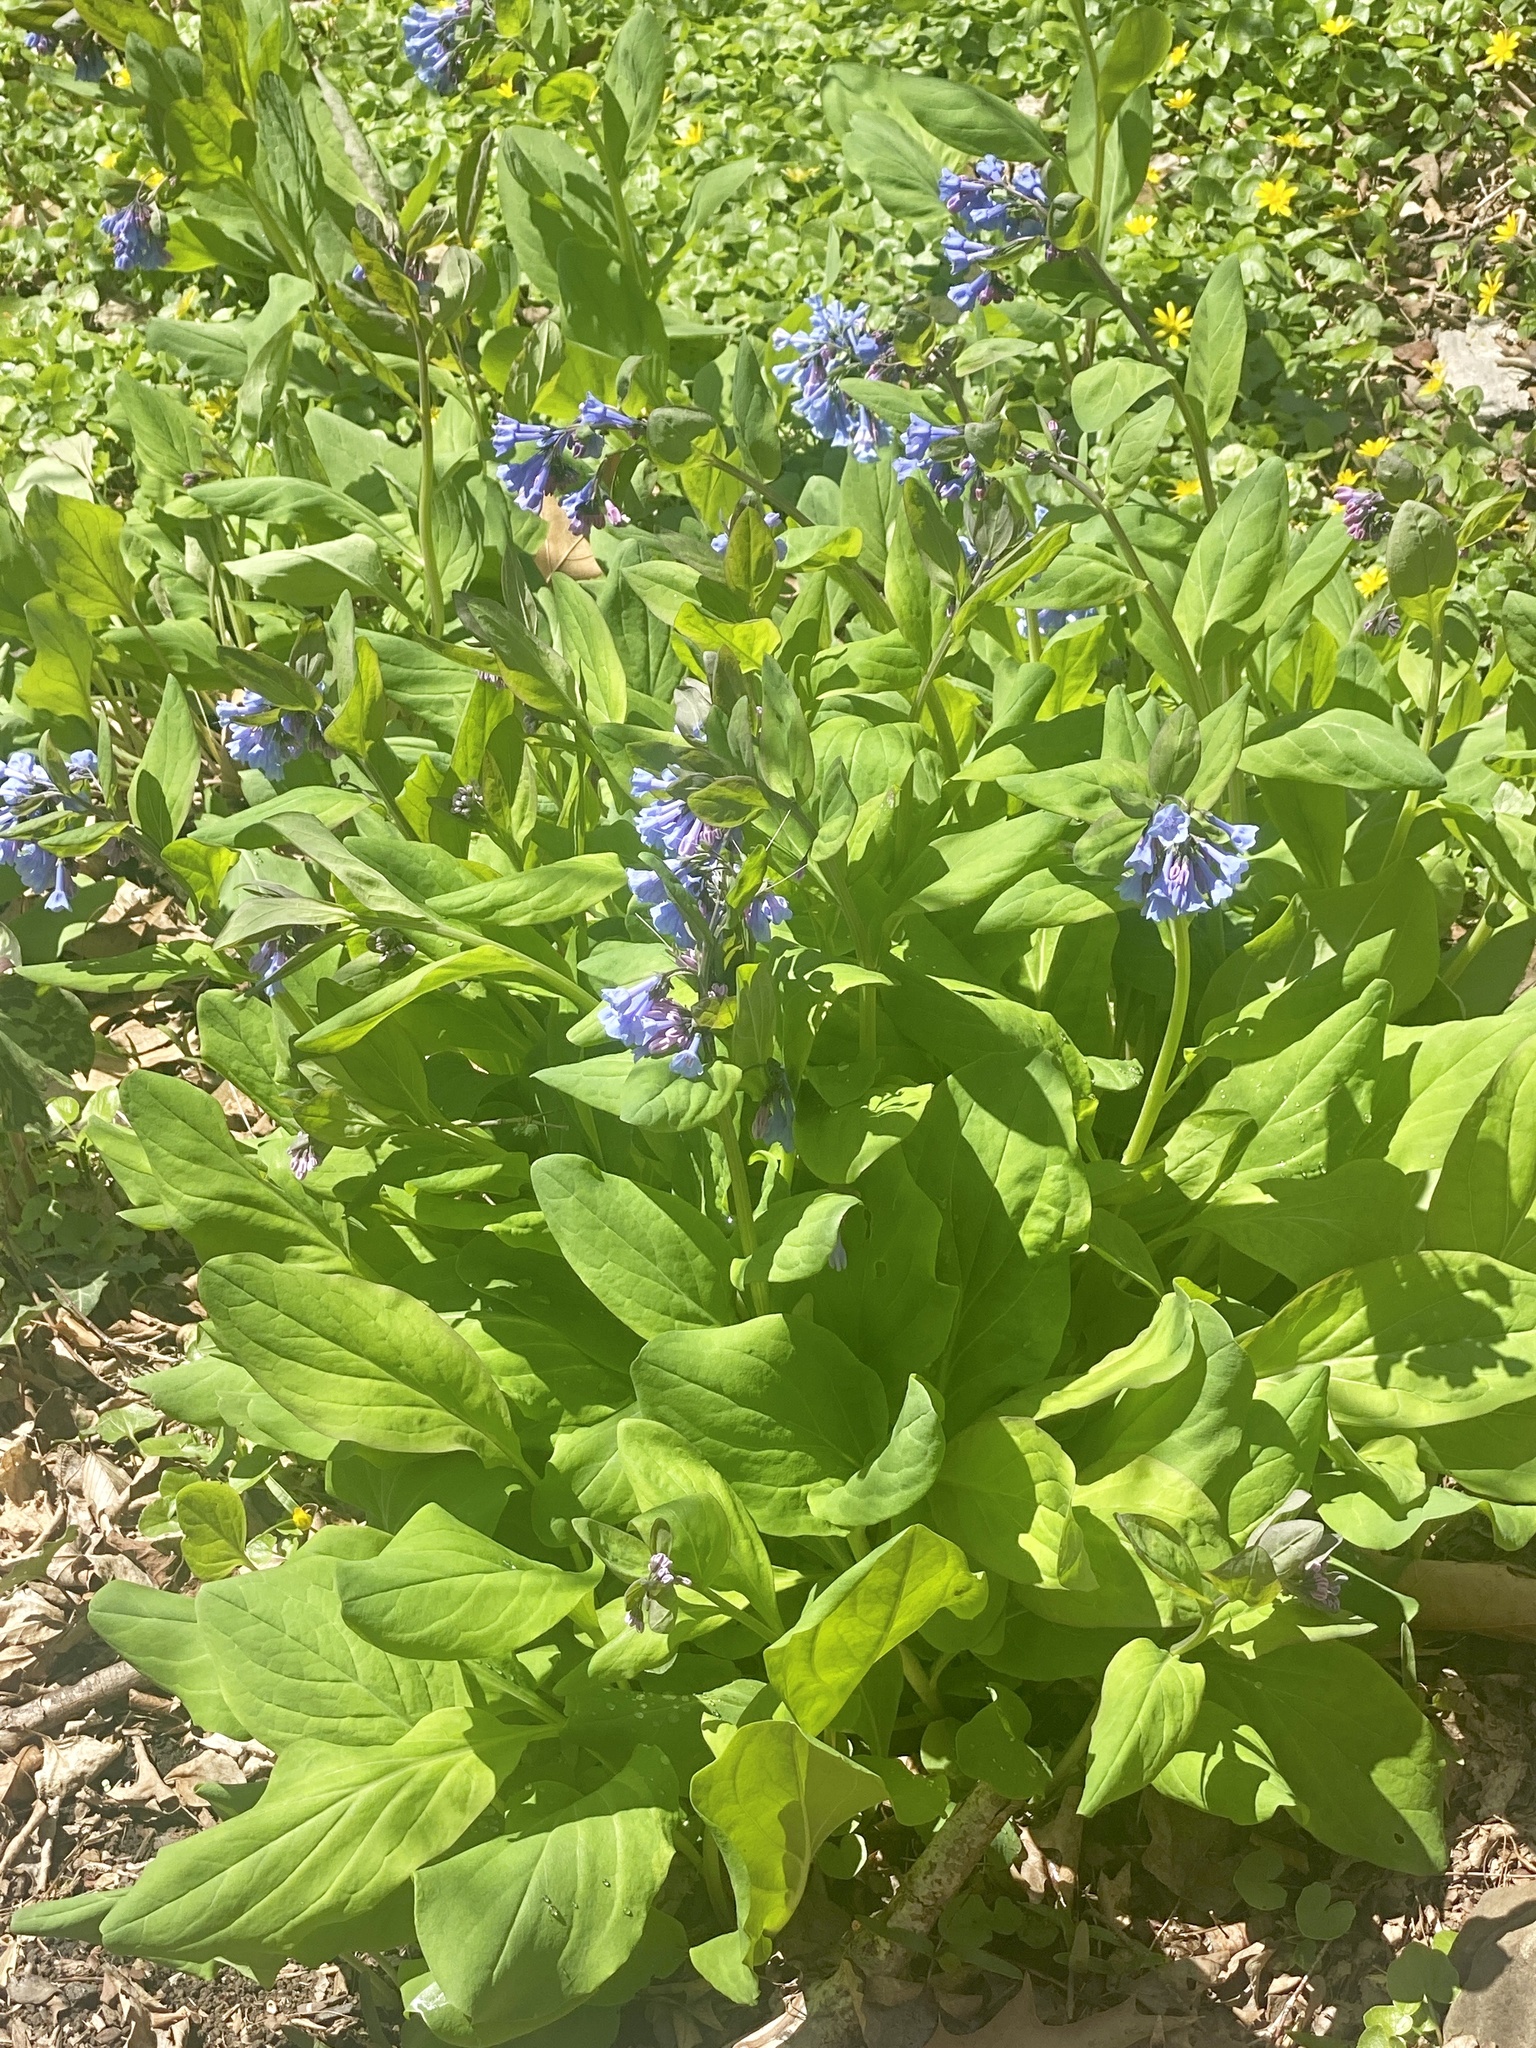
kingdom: Plantae
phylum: Tracheophyta
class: Magnoliopsida
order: Boraginales
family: Boraginaceae
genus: Mertensia
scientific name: Mertensia virginica
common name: Virginia bluebells
